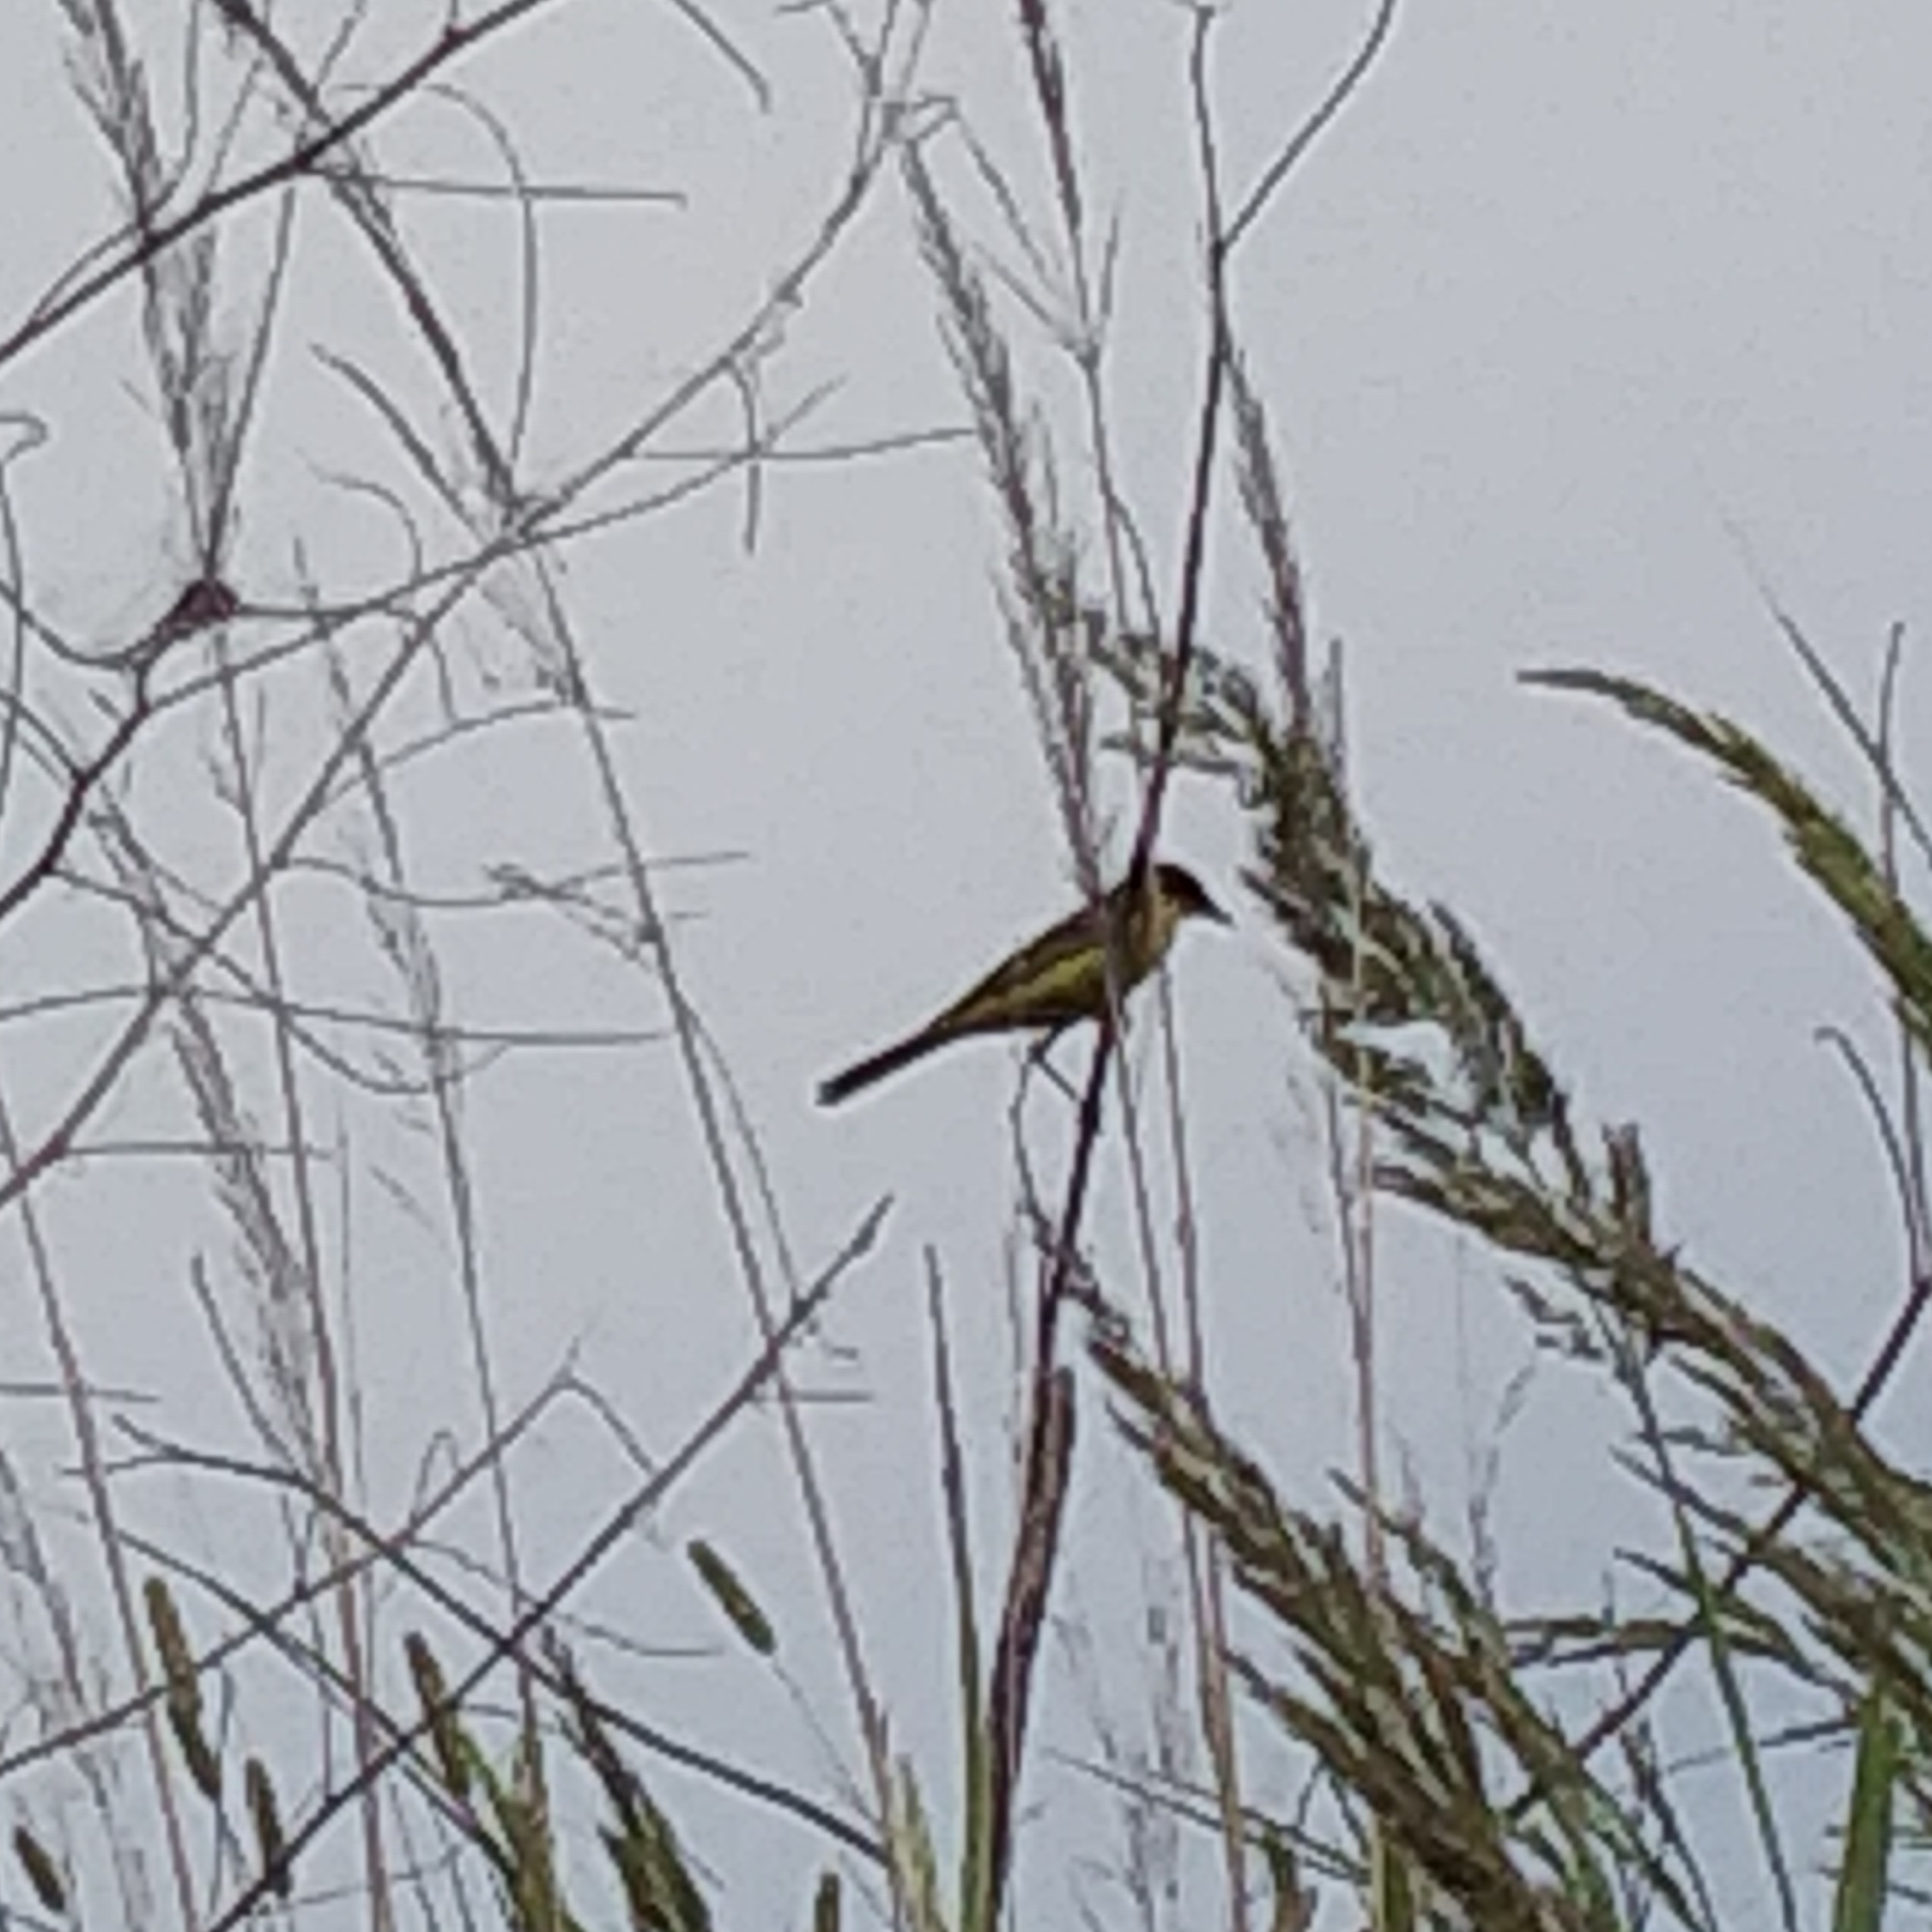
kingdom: Animalia
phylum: Chordata
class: Aves
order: Passeriformes
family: Motacillidae
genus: Motacilla
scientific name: Motacilla flava
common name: Western yellow wagtail
